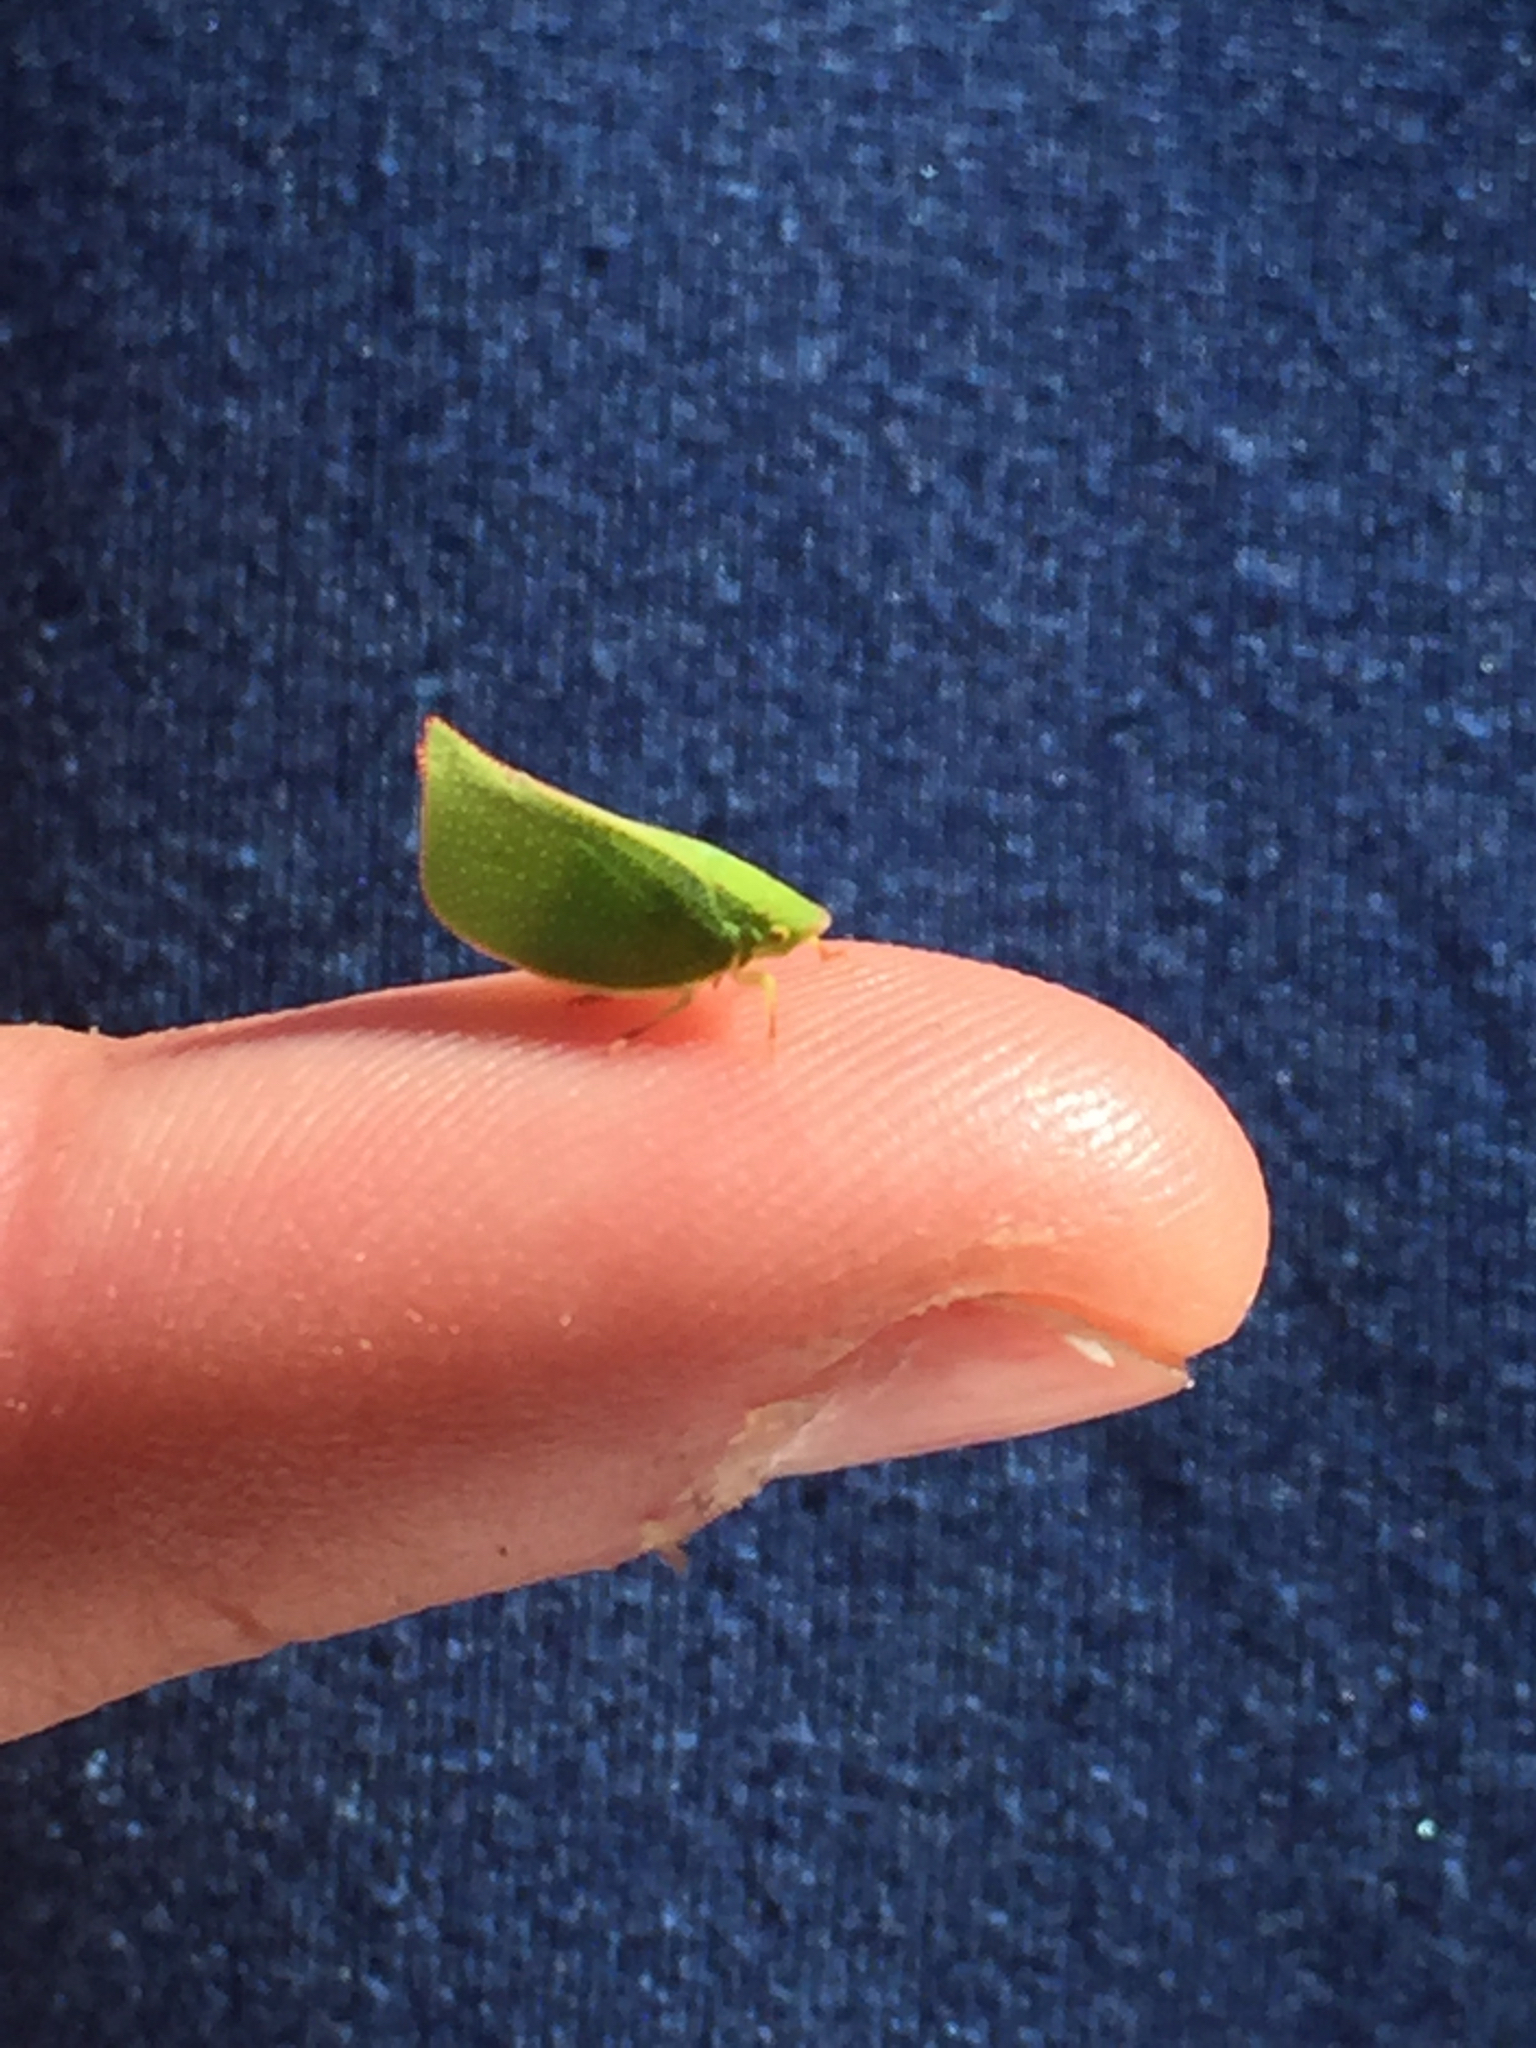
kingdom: Animalia
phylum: Arthropoda
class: Insecta
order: Hemiptera
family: Flatidae
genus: Siphanta
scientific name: Siphanta acuta
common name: Torpedo bug
